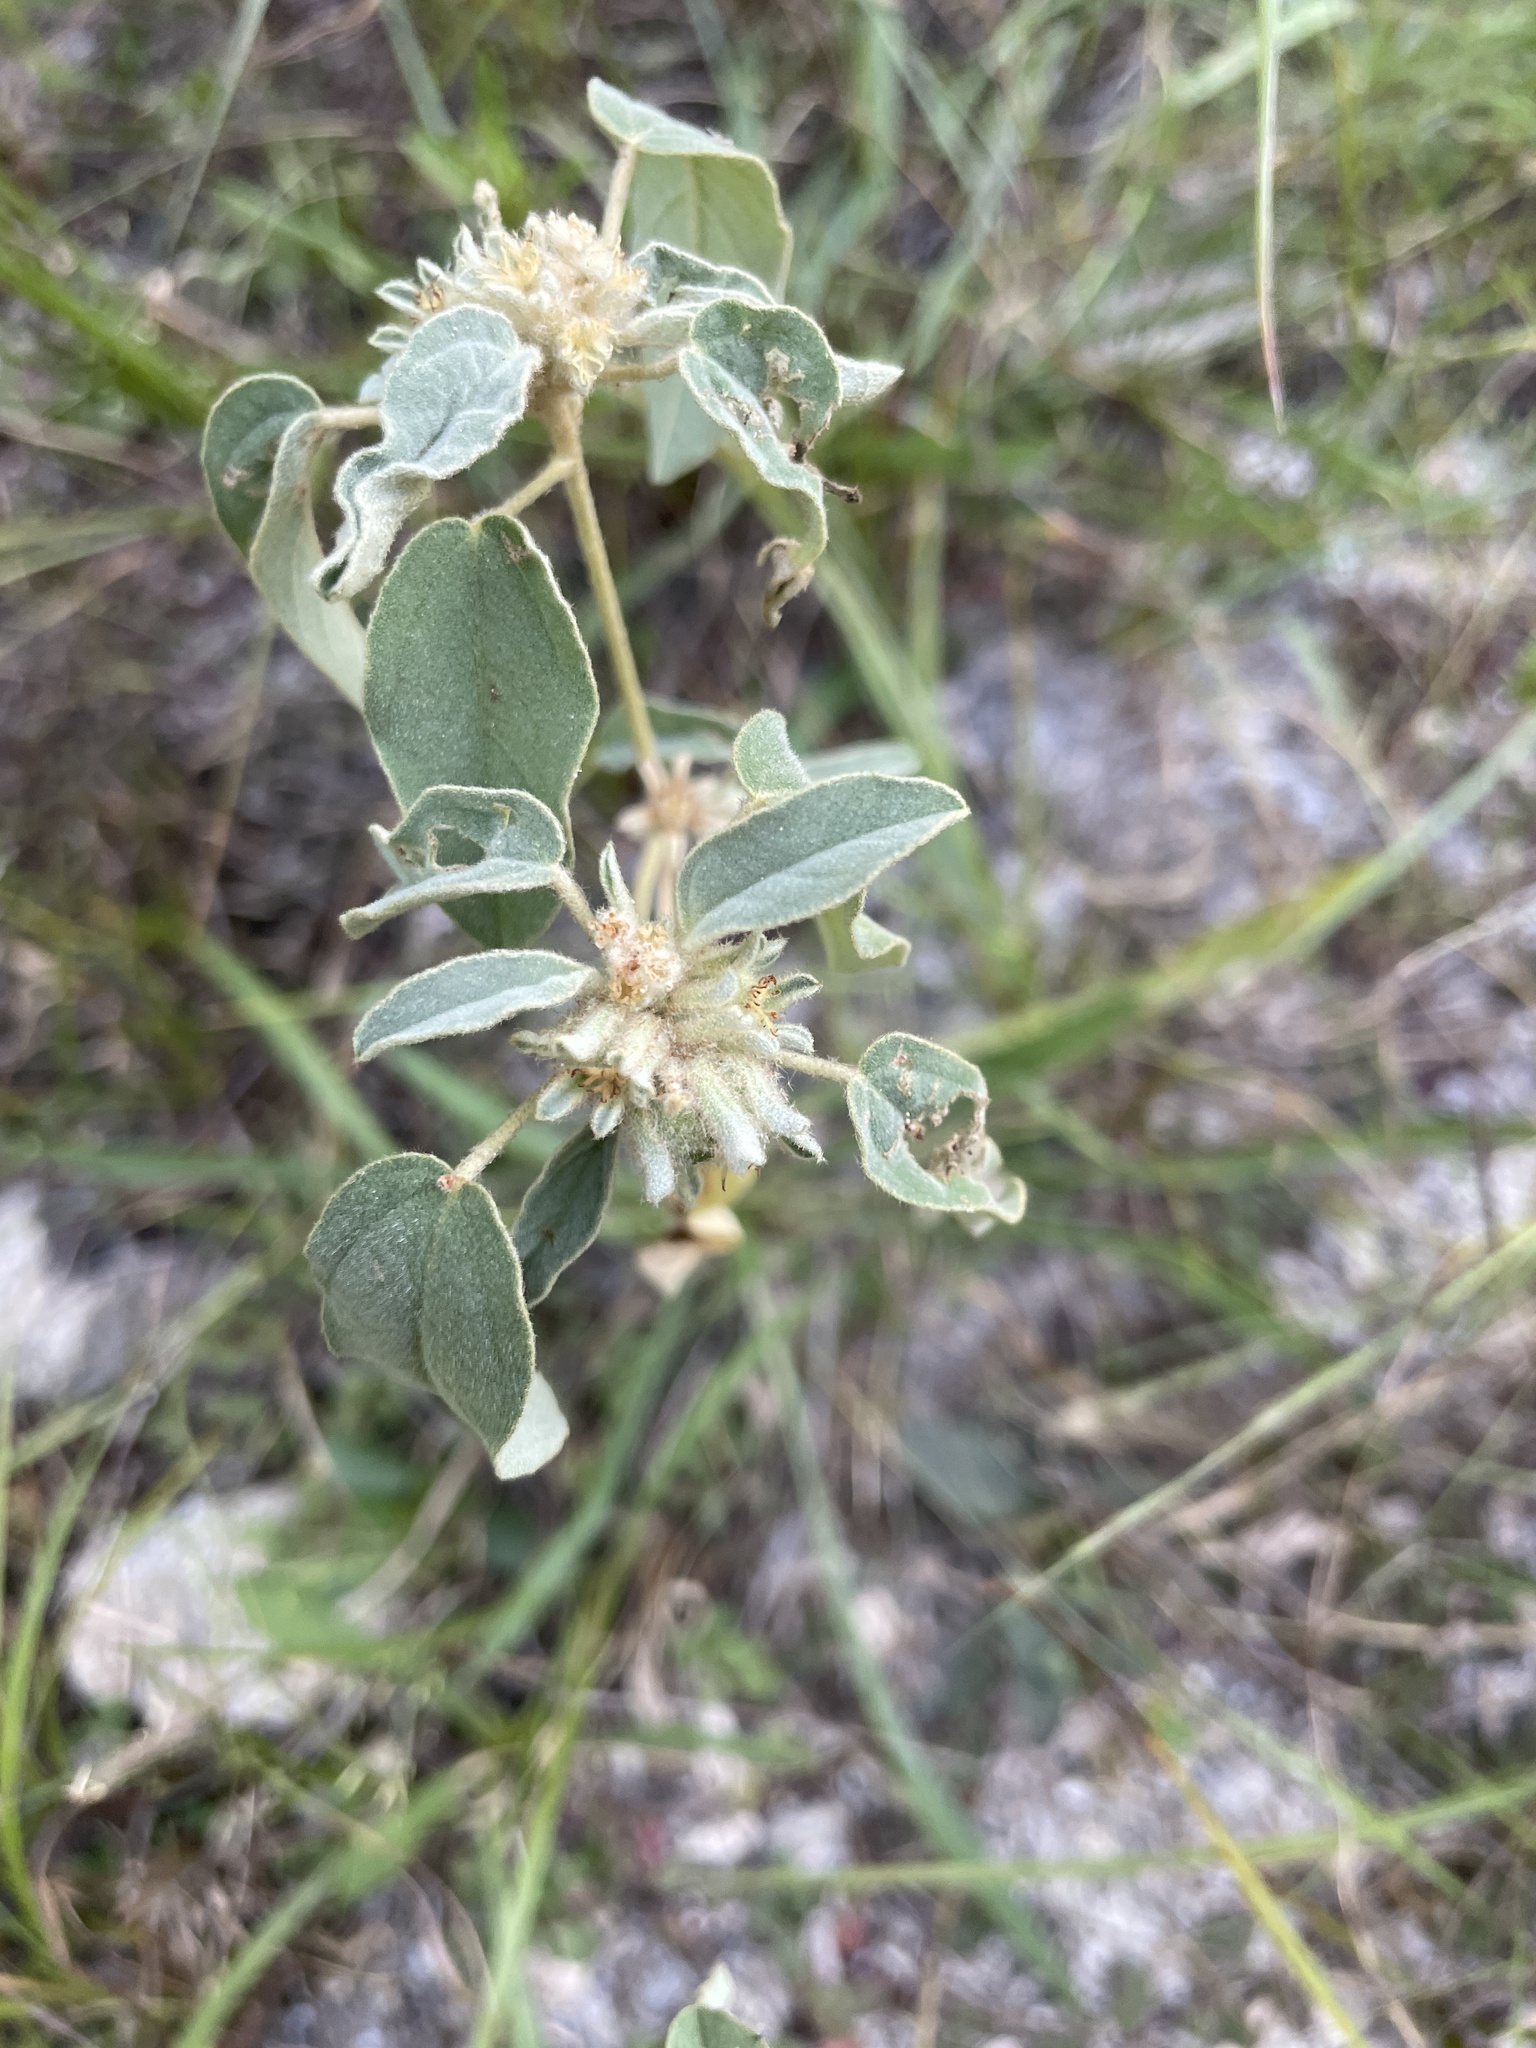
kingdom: Plantae
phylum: Tracheophyta
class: Magnoliopsida
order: Malpighiales
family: Euphorbiaceae
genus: Croton
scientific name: Croton capitatus
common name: Woolly croton
